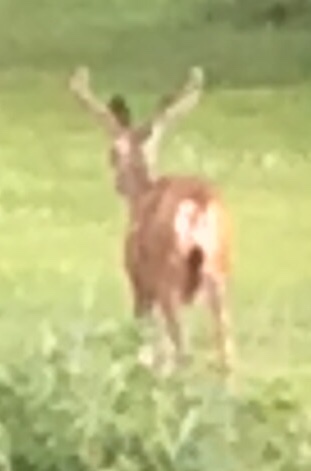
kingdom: Animalia
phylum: Chordata
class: Mammalia
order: Artiodactyla
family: Cervidae
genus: Odocoileus
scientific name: Odocoileus hemionus
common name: Mule deer
